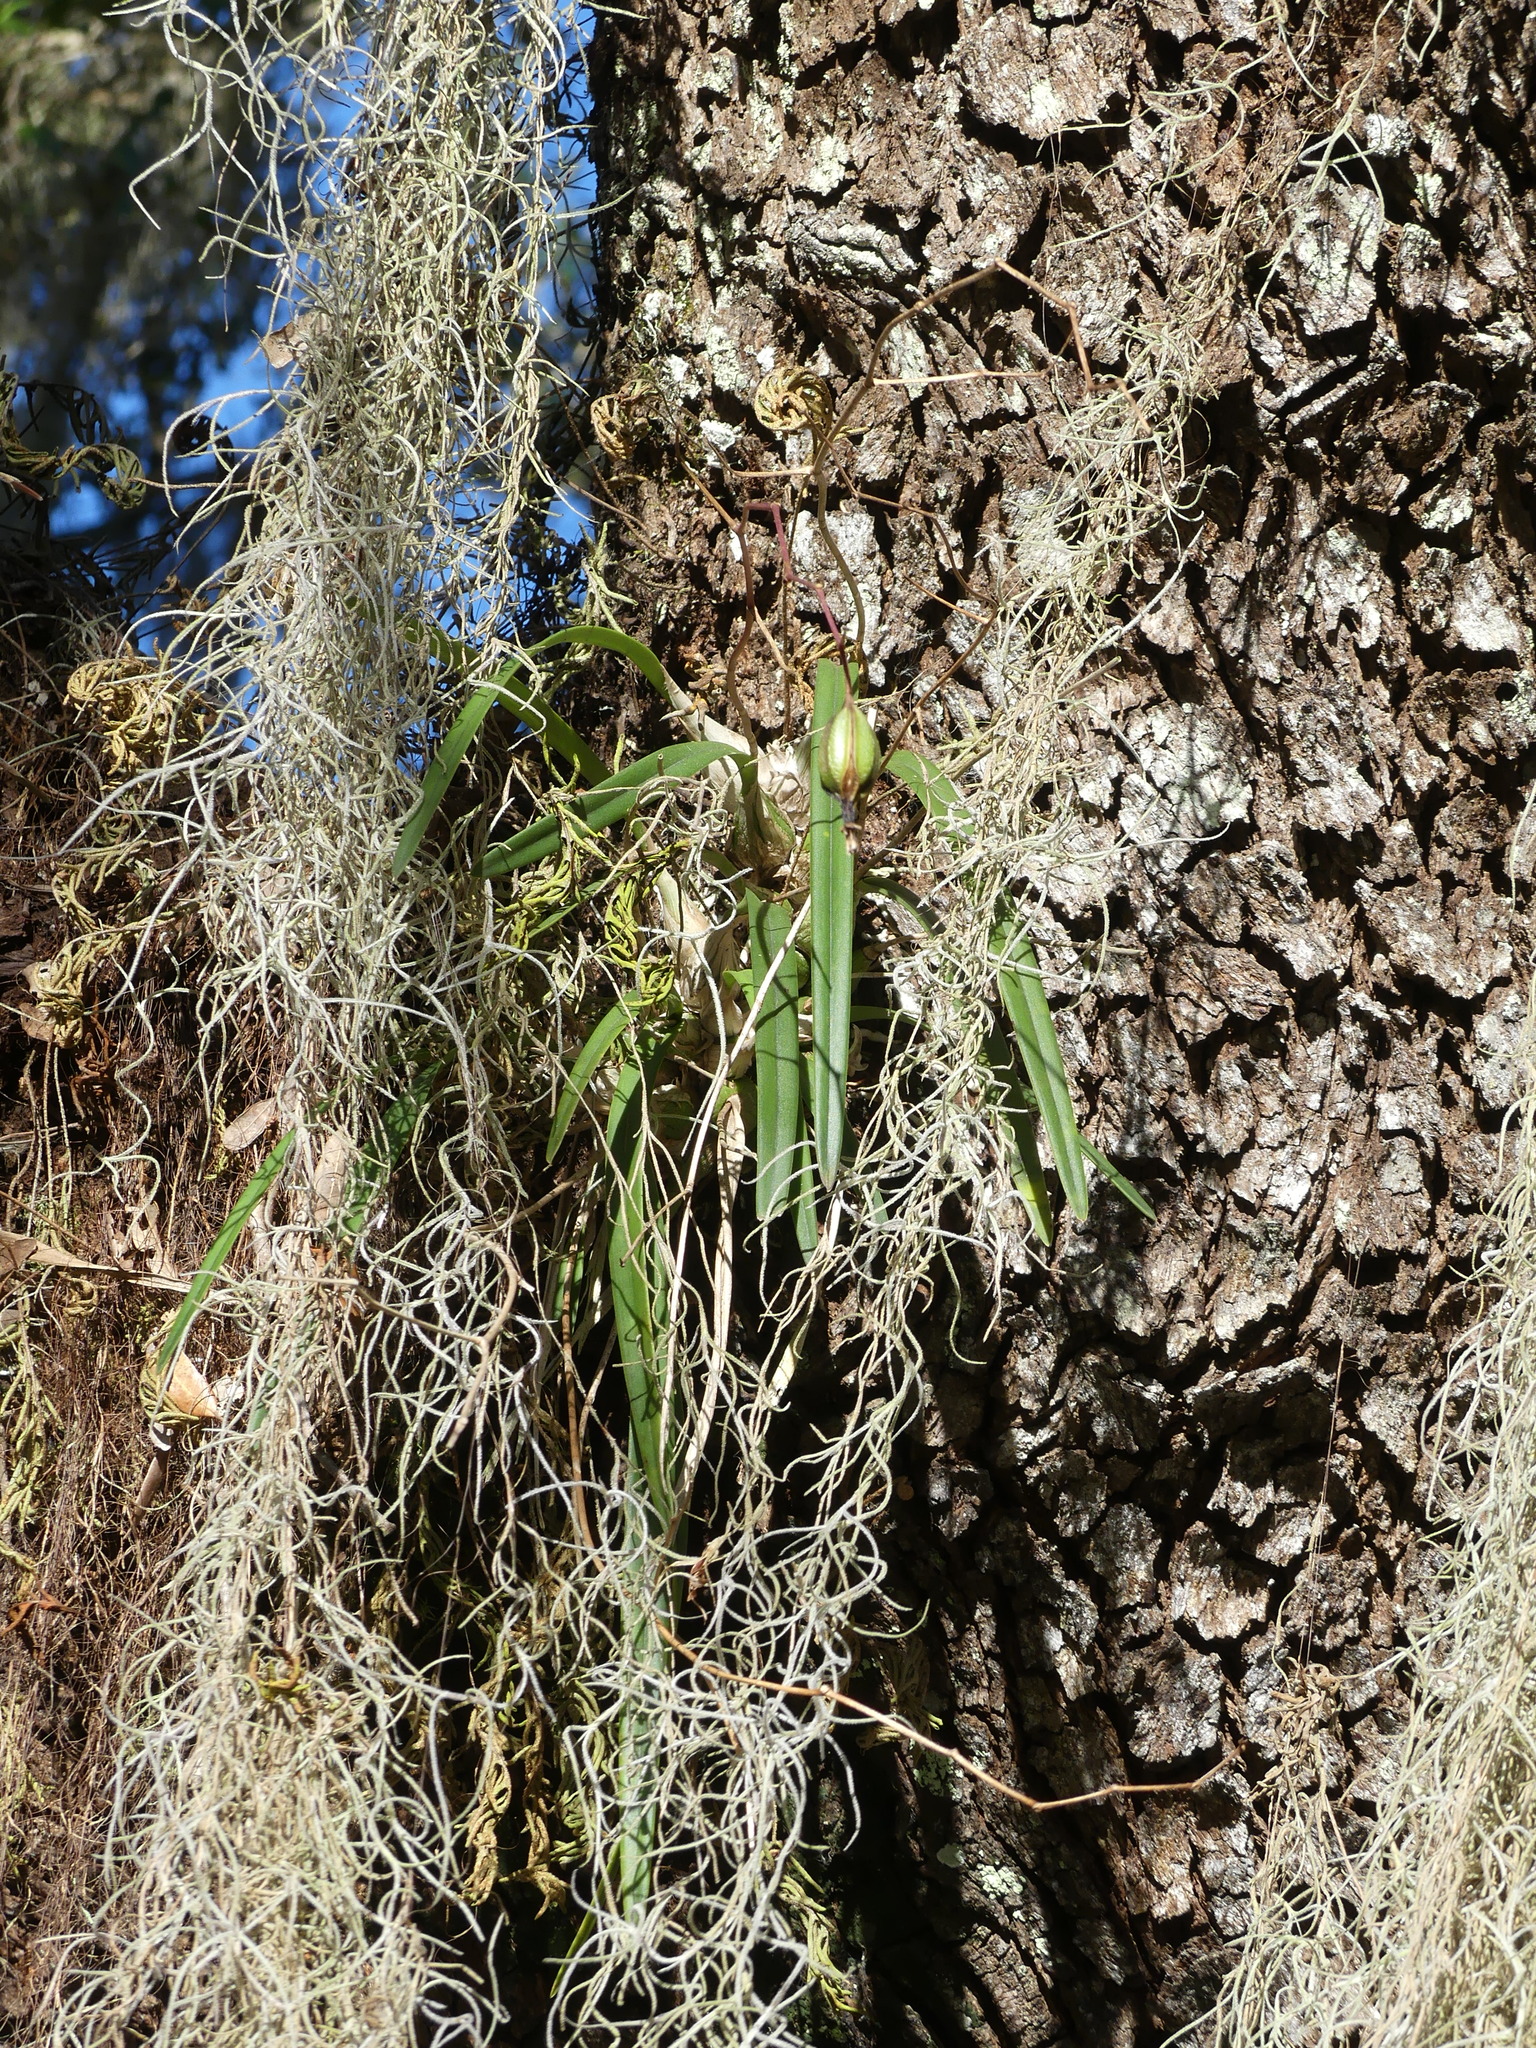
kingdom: Plantae
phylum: Tracheophyta
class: Liliopsida
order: Asparagales
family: Orchidaceae
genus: Encyclia
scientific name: Encyclia tampensis
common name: Florida butterfly orchid
